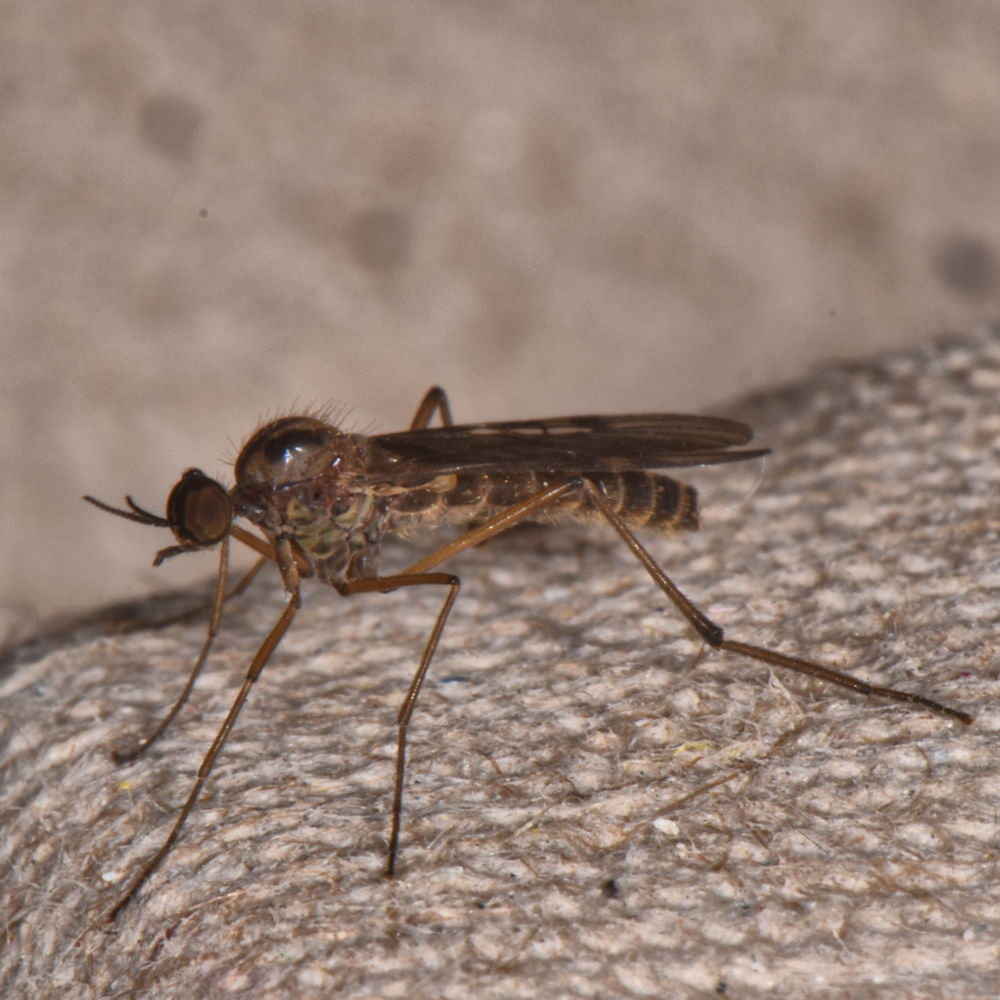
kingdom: Animalia
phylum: Arthropoda
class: Insecta
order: Diptera
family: Anisopodidae
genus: Sylvicola
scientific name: Sylvicola punctatus
